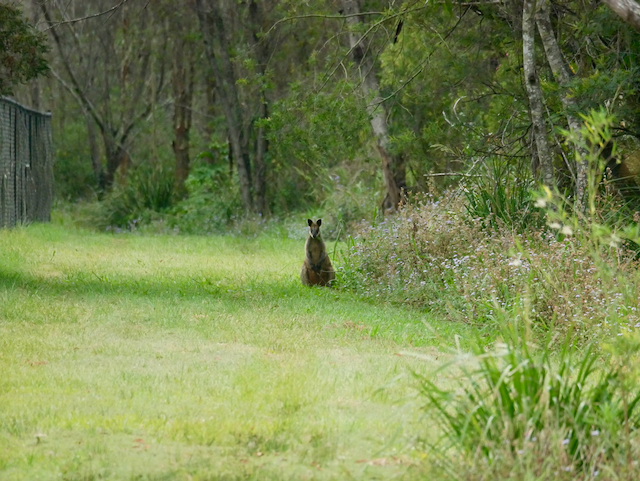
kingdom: Animalia
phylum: Chordata
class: Mammalia
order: Diprotodontia
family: Macropodidae
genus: Wallabia
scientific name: Wallabia bicolor
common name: Swamp wallaby
